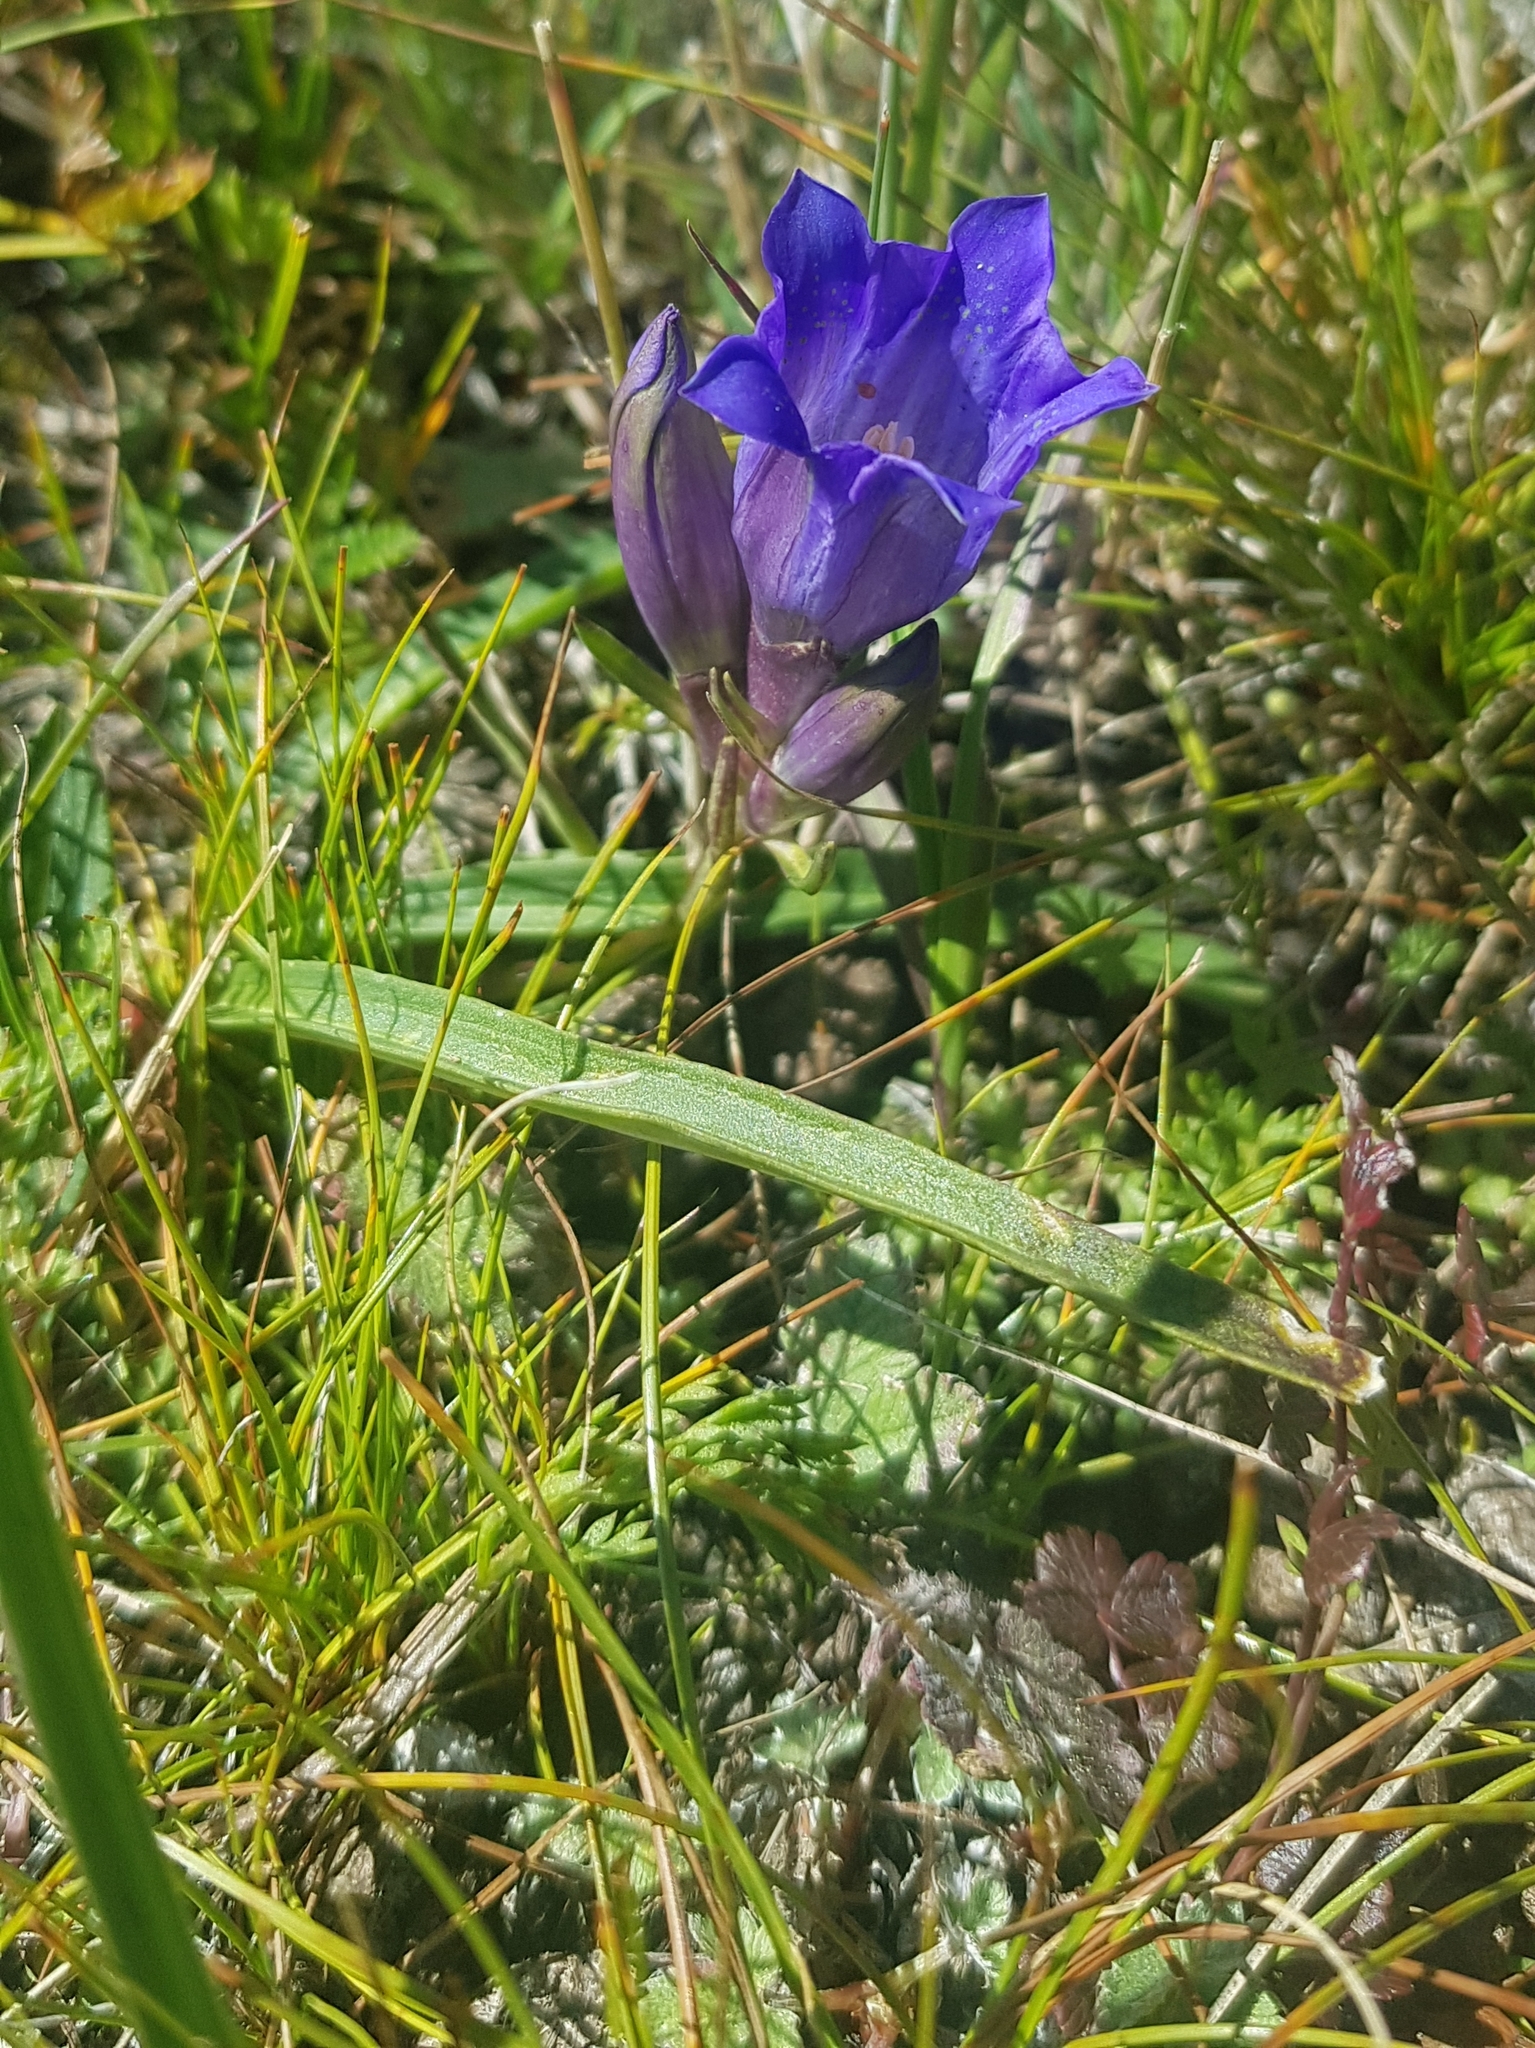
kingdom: Plantae
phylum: Tracheophyta
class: Magnoliopsida
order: Gentianales
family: Gentianaceae
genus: Gentiana
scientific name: Gentiana decumbens
